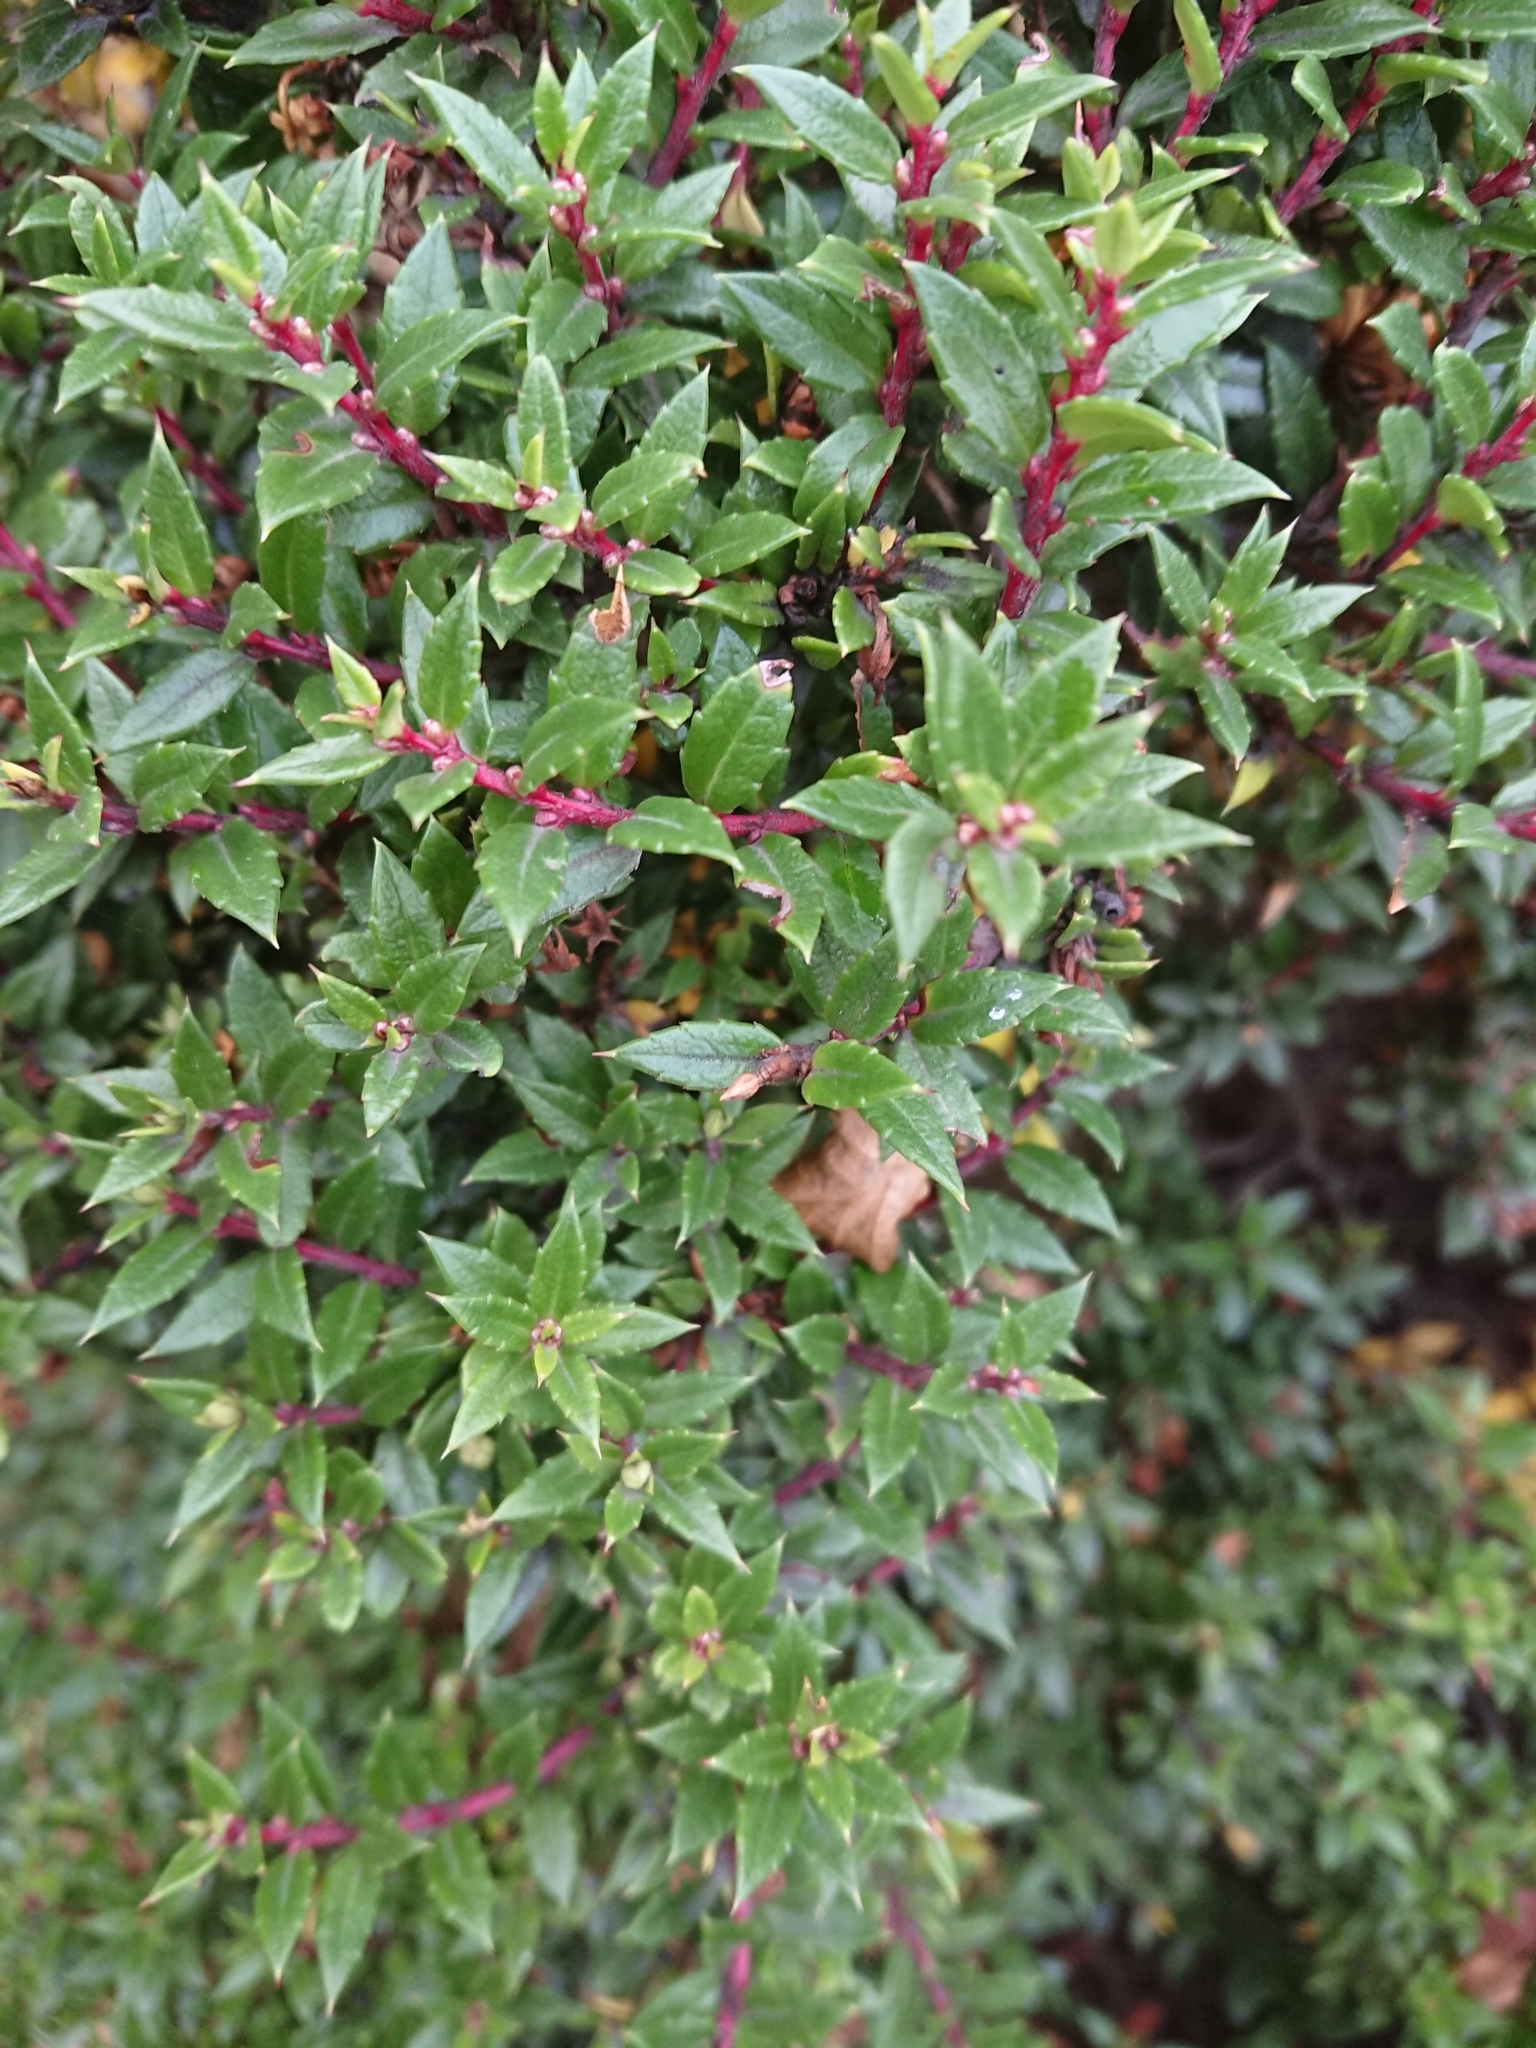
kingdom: Plantae
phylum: Tracheophyta
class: Magnoliopsida
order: Ericales
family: Ericaceae
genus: Gaultheria
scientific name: Gaultheria mucronata
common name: Prickly heath
